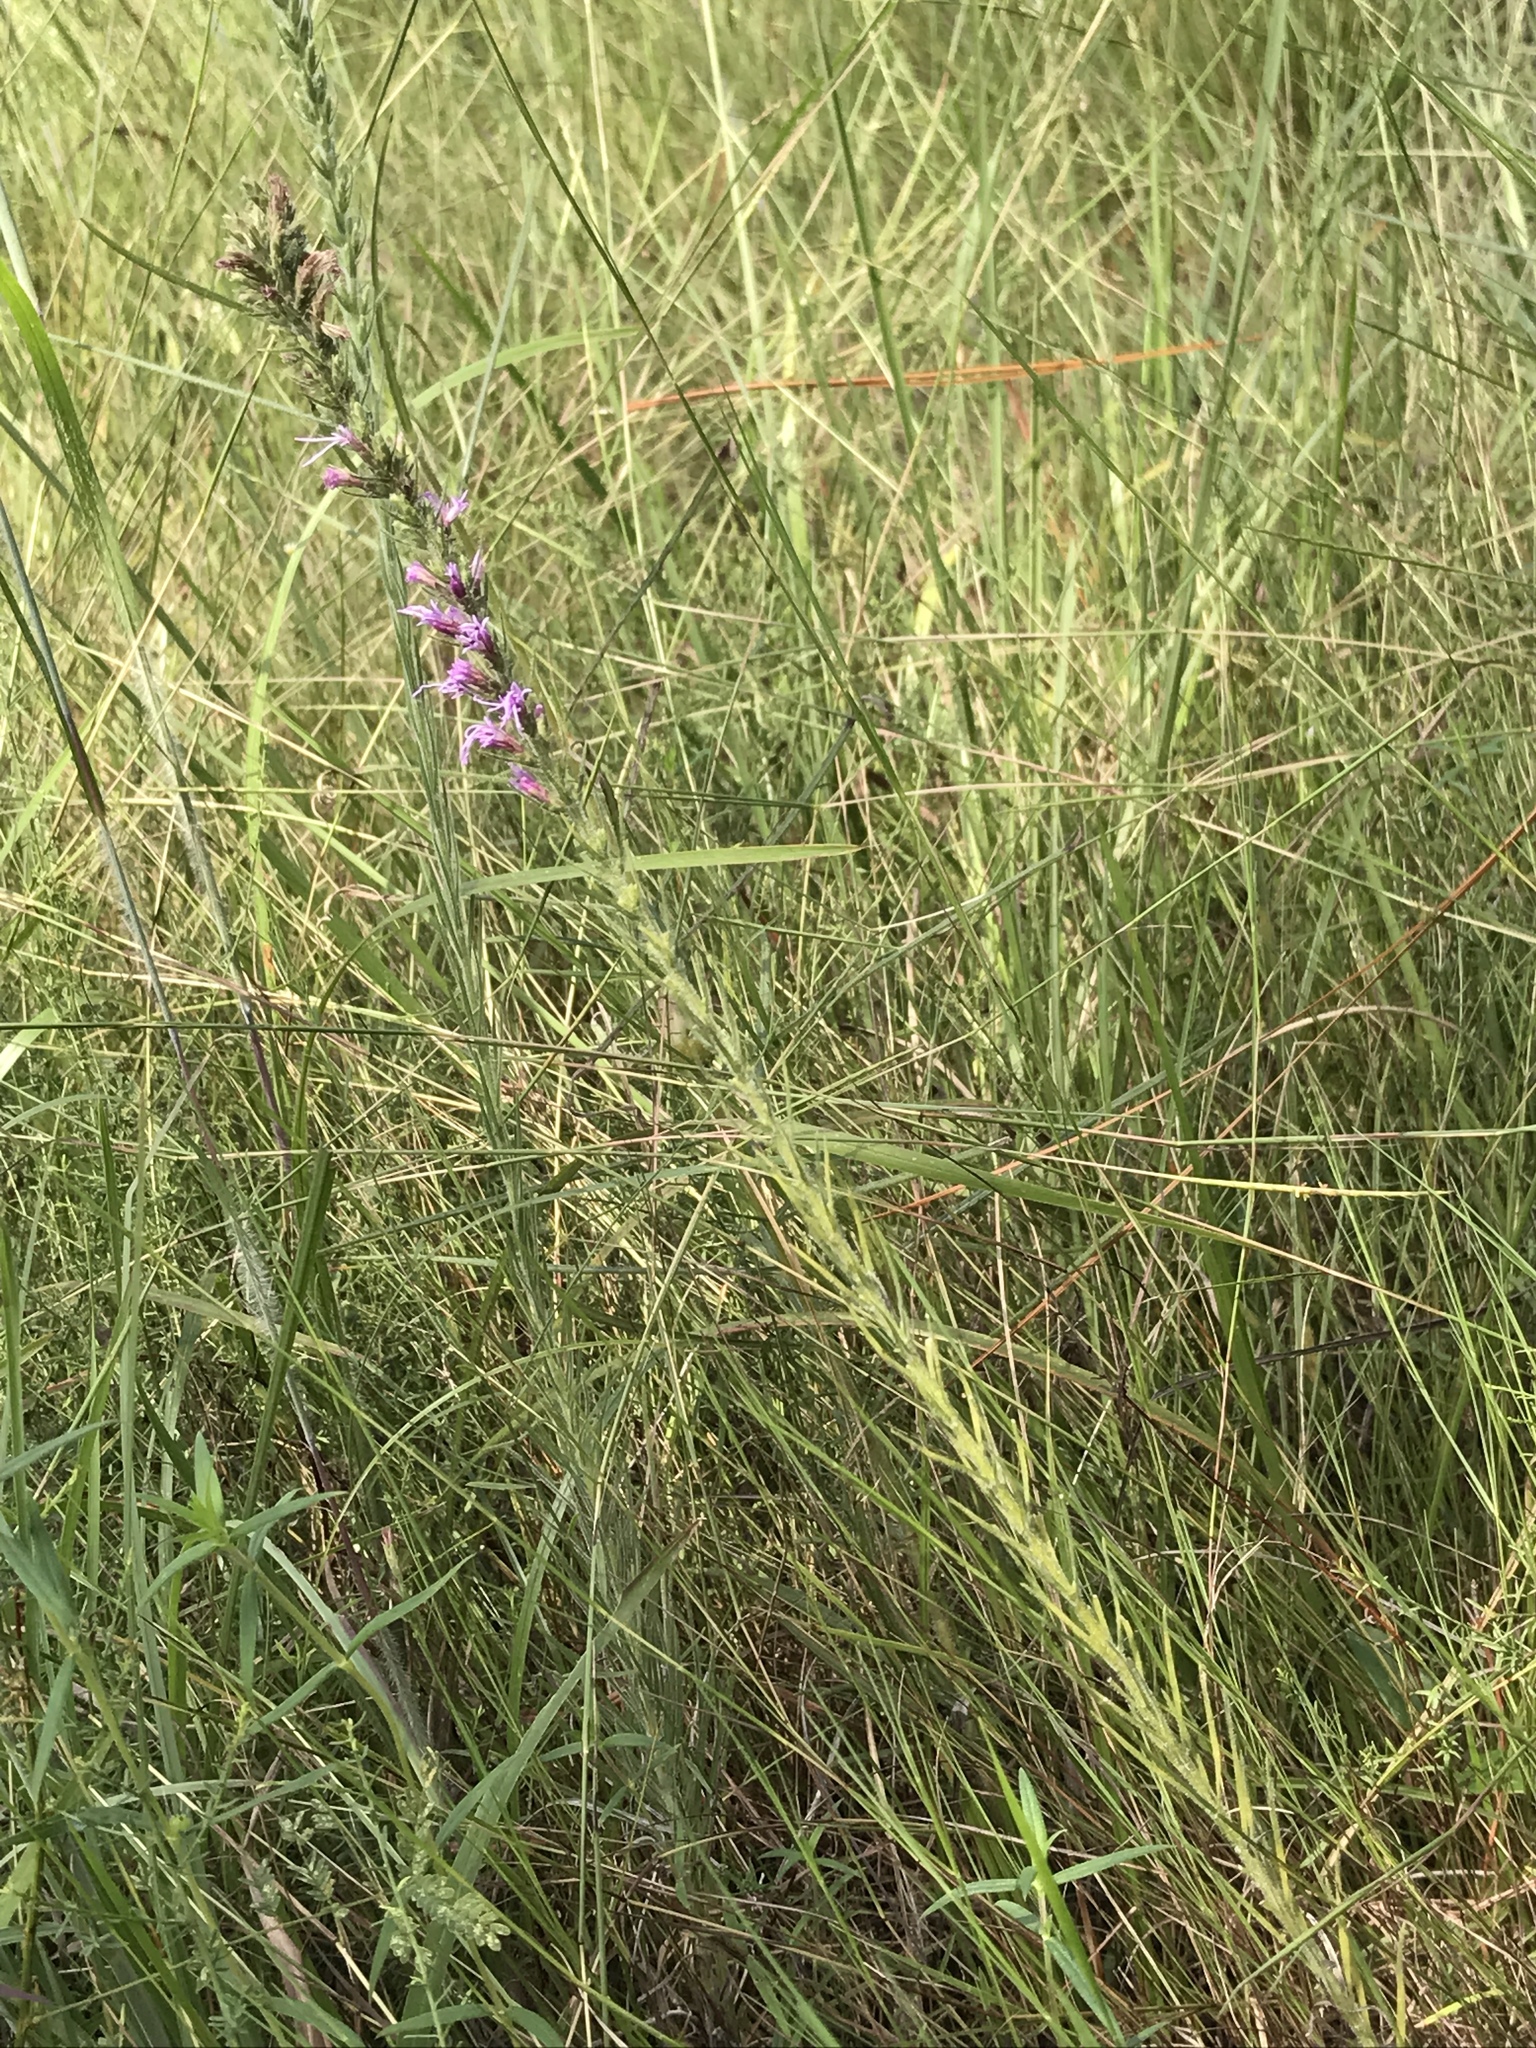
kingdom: Plantae
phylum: Tracheophyta
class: Magnoliopsida
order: Asterales
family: Asteraceae
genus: Liatris
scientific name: Liatris acidota
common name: Gulf coast gayfeather
